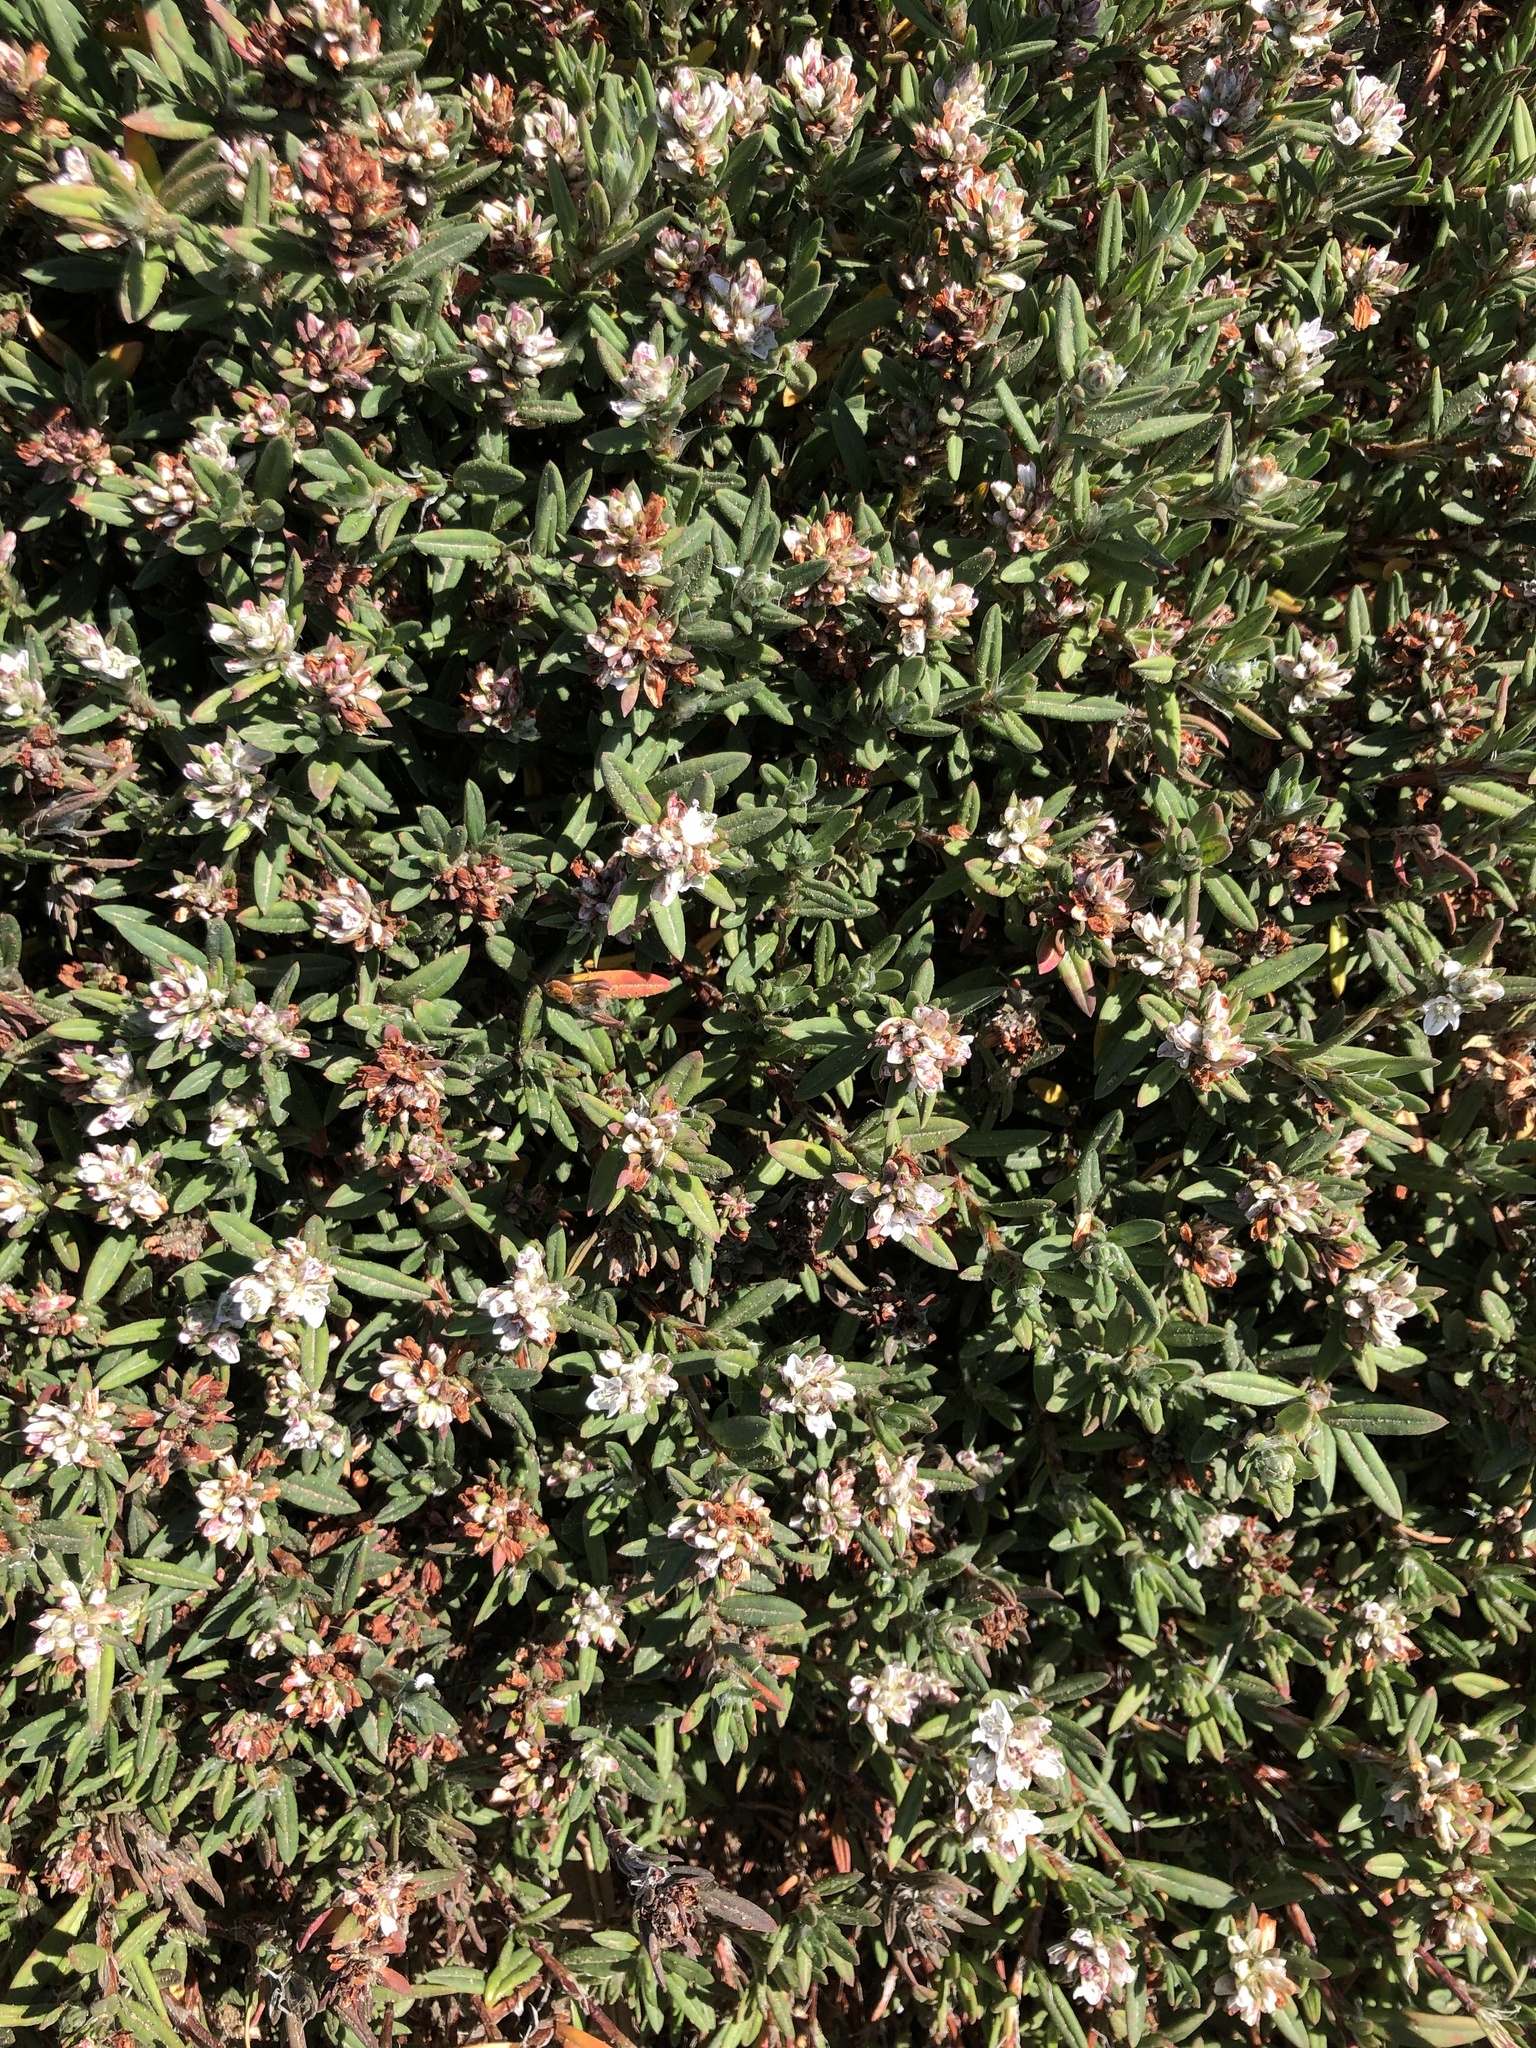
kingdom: Plantae
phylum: Tracheophyta
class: Magnoliopsida
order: Caryophyllales
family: Polygonaceae
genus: Polygonum
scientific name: Polygonum paronychia
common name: Dune knotweed
